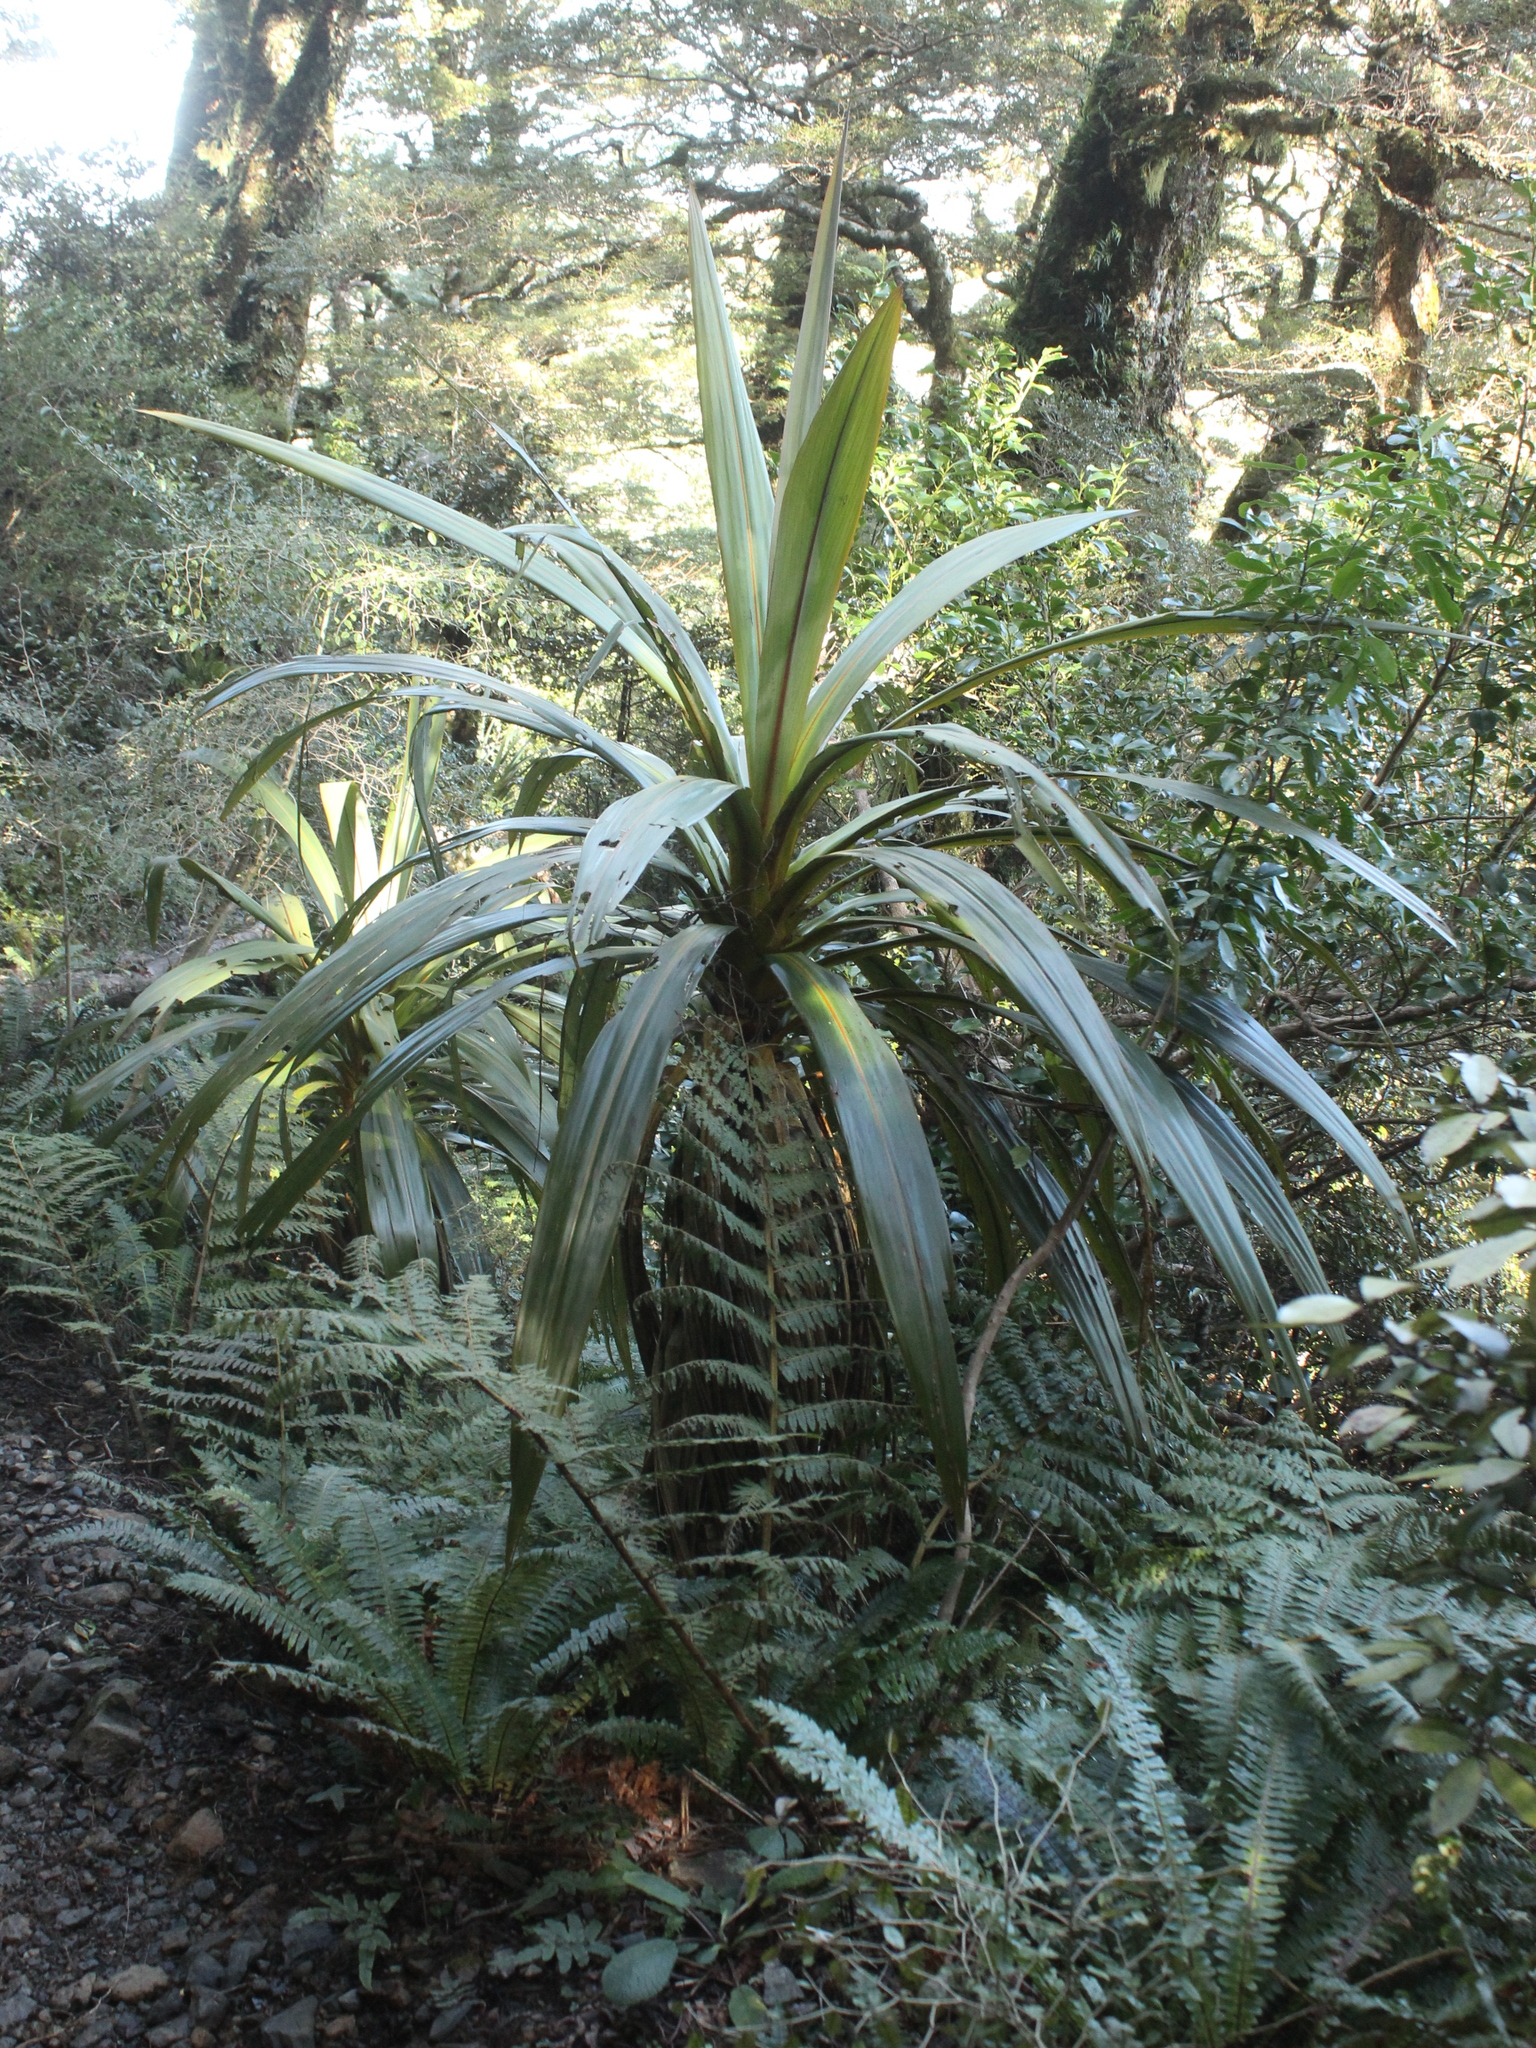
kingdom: Plantae
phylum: Tracheophyta
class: Liliopsida
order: Asparagales
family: Asparagaceae
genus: Cordyline
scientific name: Cordyline indivisa
